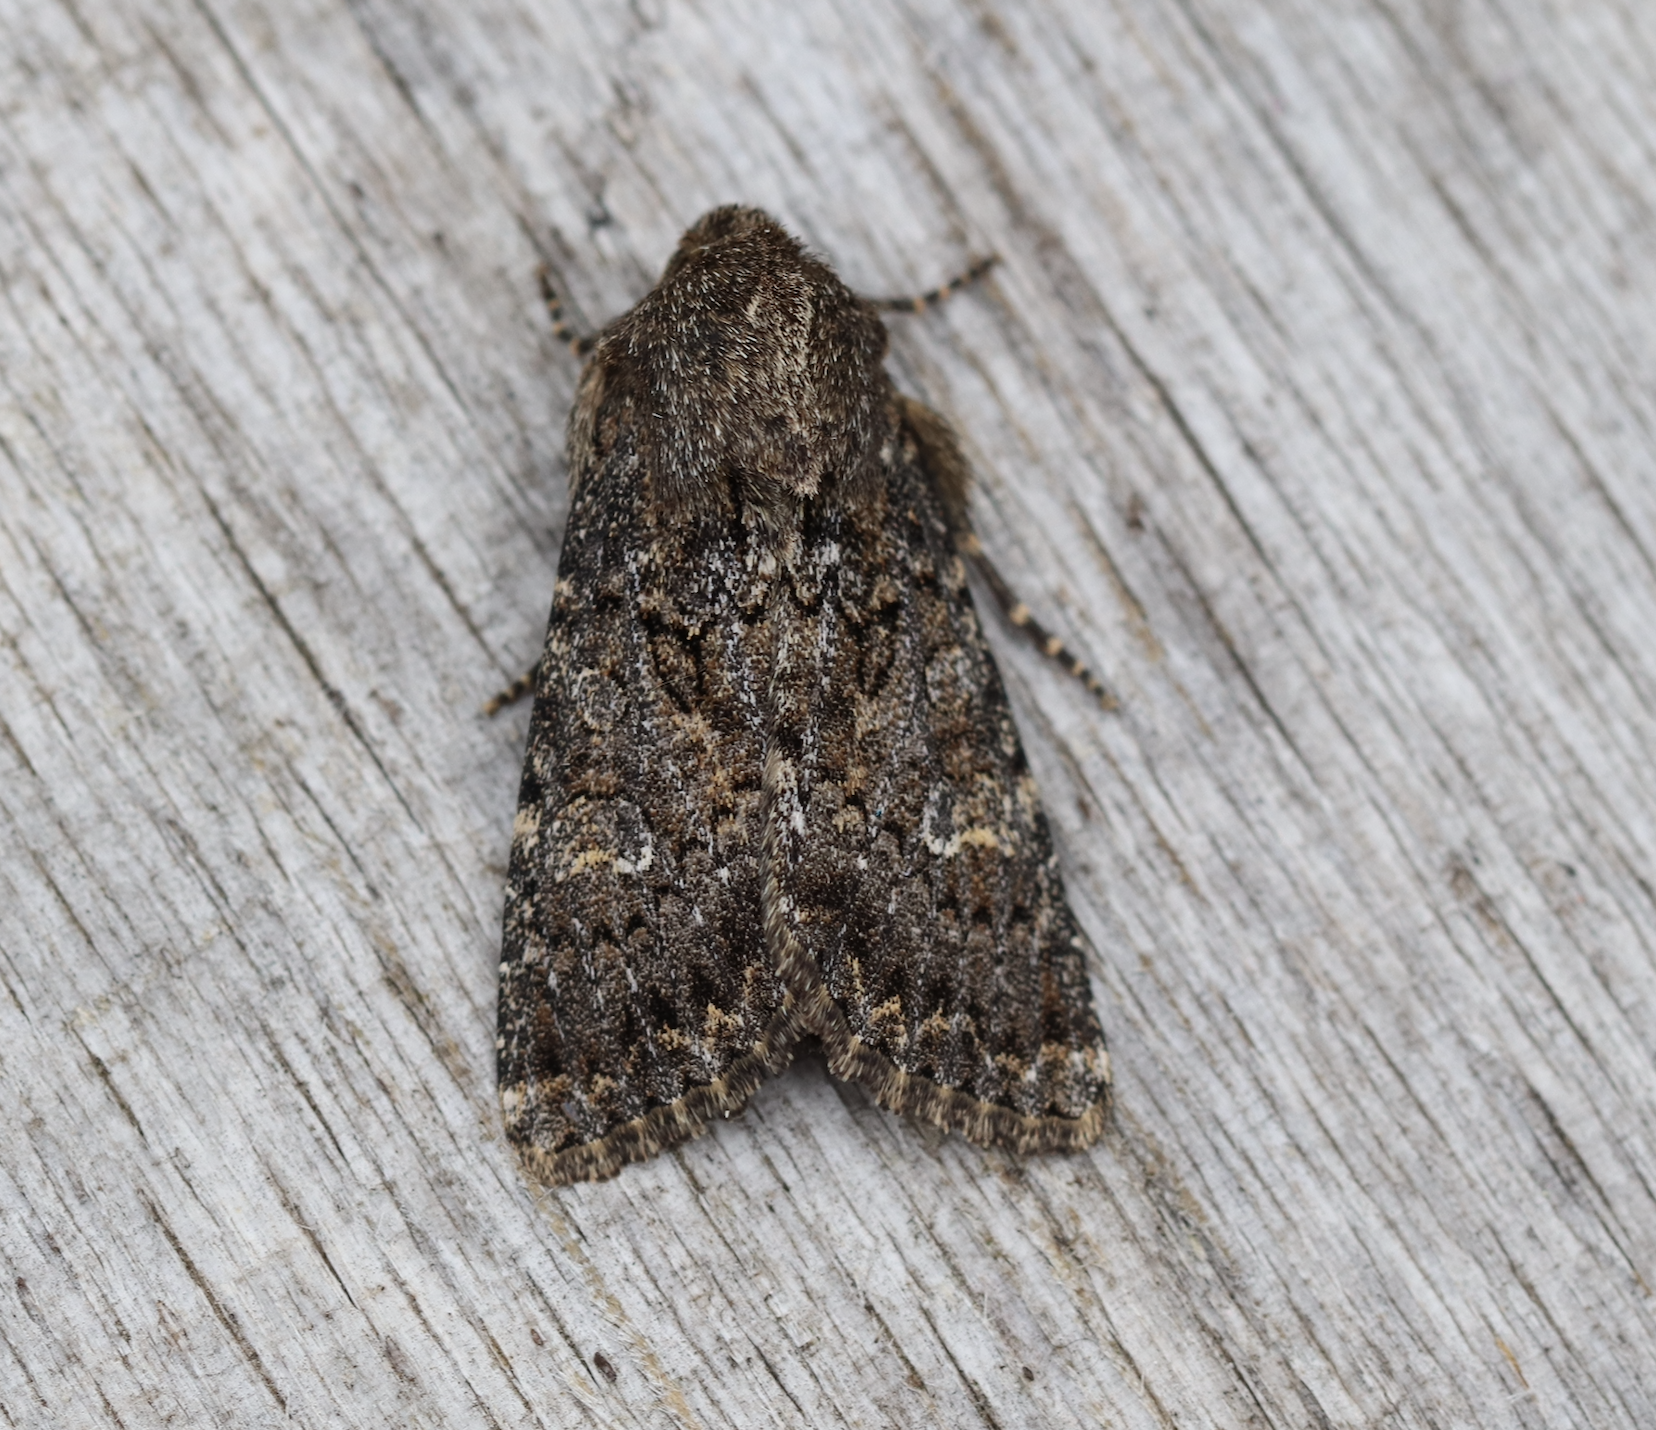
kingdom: Animalia
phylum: Arthropoda
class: Insecta
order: Lepidoptera
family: Noctuidae
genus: Apamea
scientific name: Apamea maillardi
